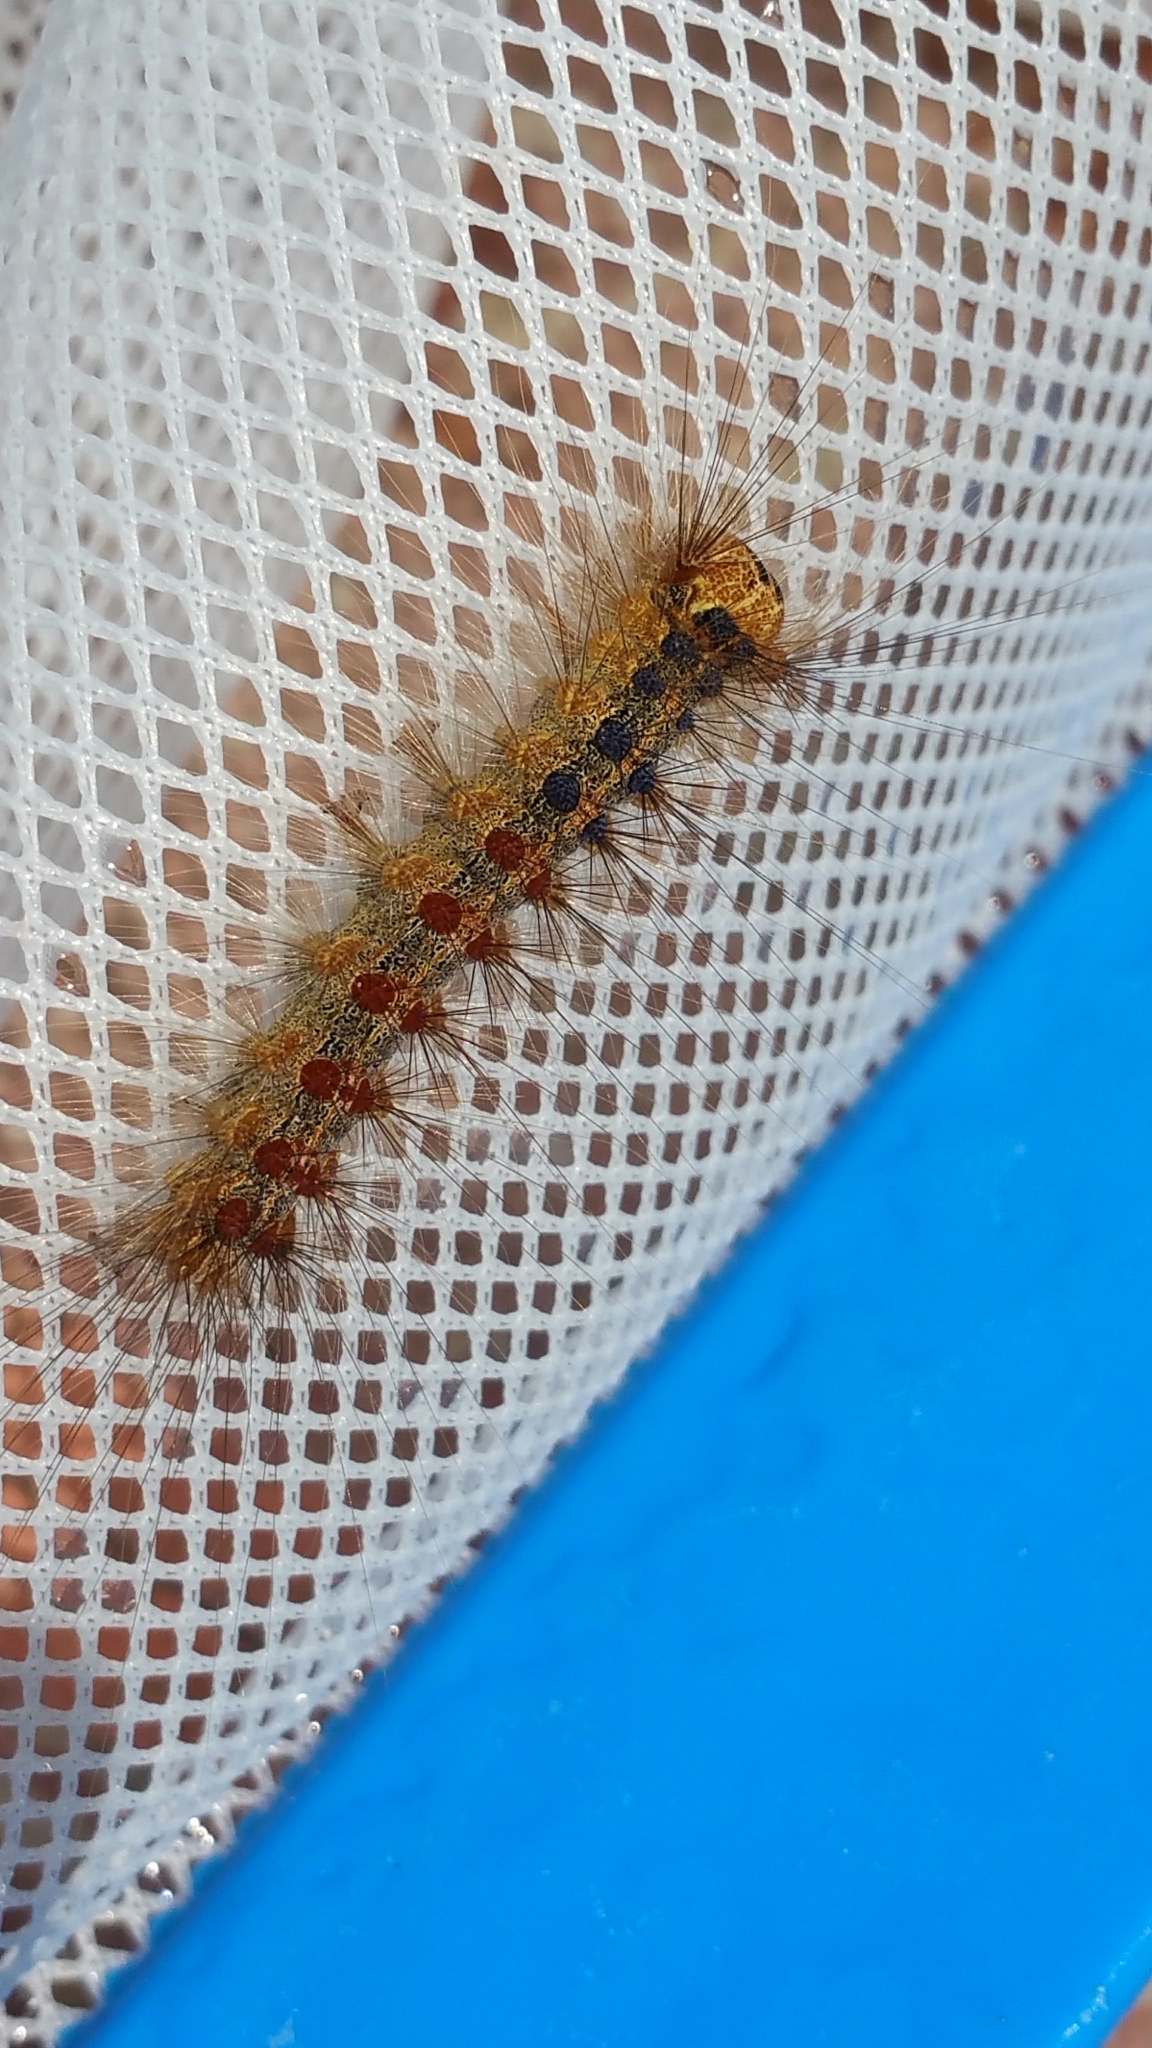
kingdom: Animalia
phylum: Arthropoda
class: Insecta
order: Lepidoptera
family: Erebidae
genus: Lymantria
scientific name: Lymantria dispar
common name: Gypsy moth
